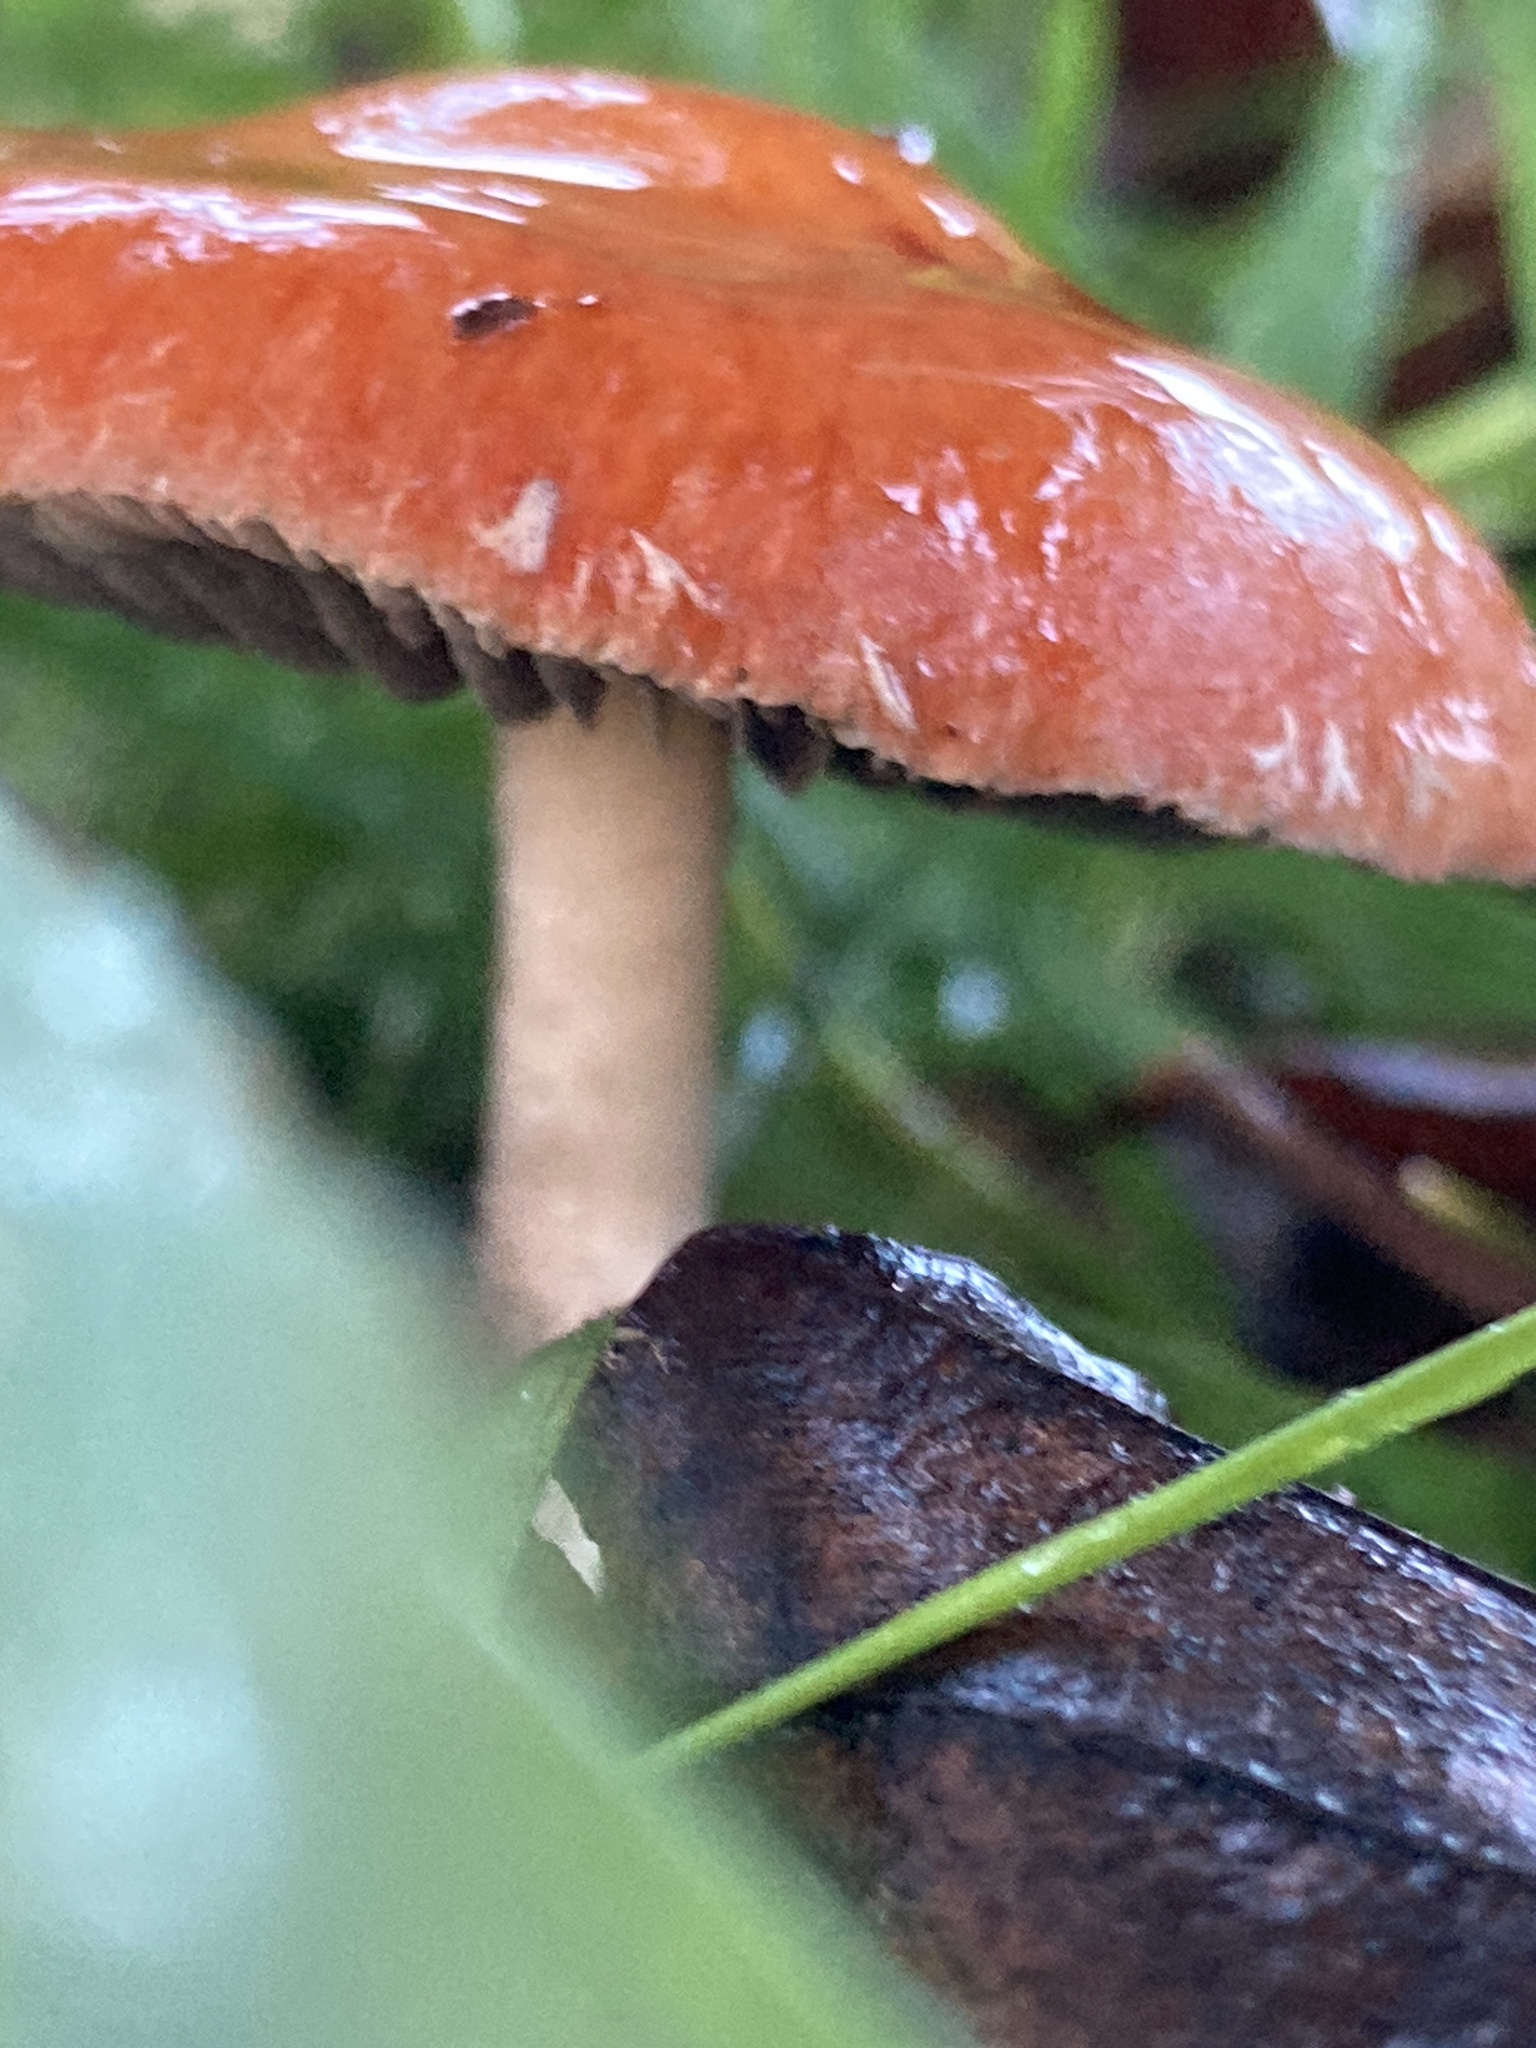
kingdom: Fungi
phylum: Basidiomycota
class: Agaricomycetes
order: Agaricales
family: Strophariaceae
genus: Leratiomyces
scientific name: Leratiomyces ceres
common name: Redlead roundhead
